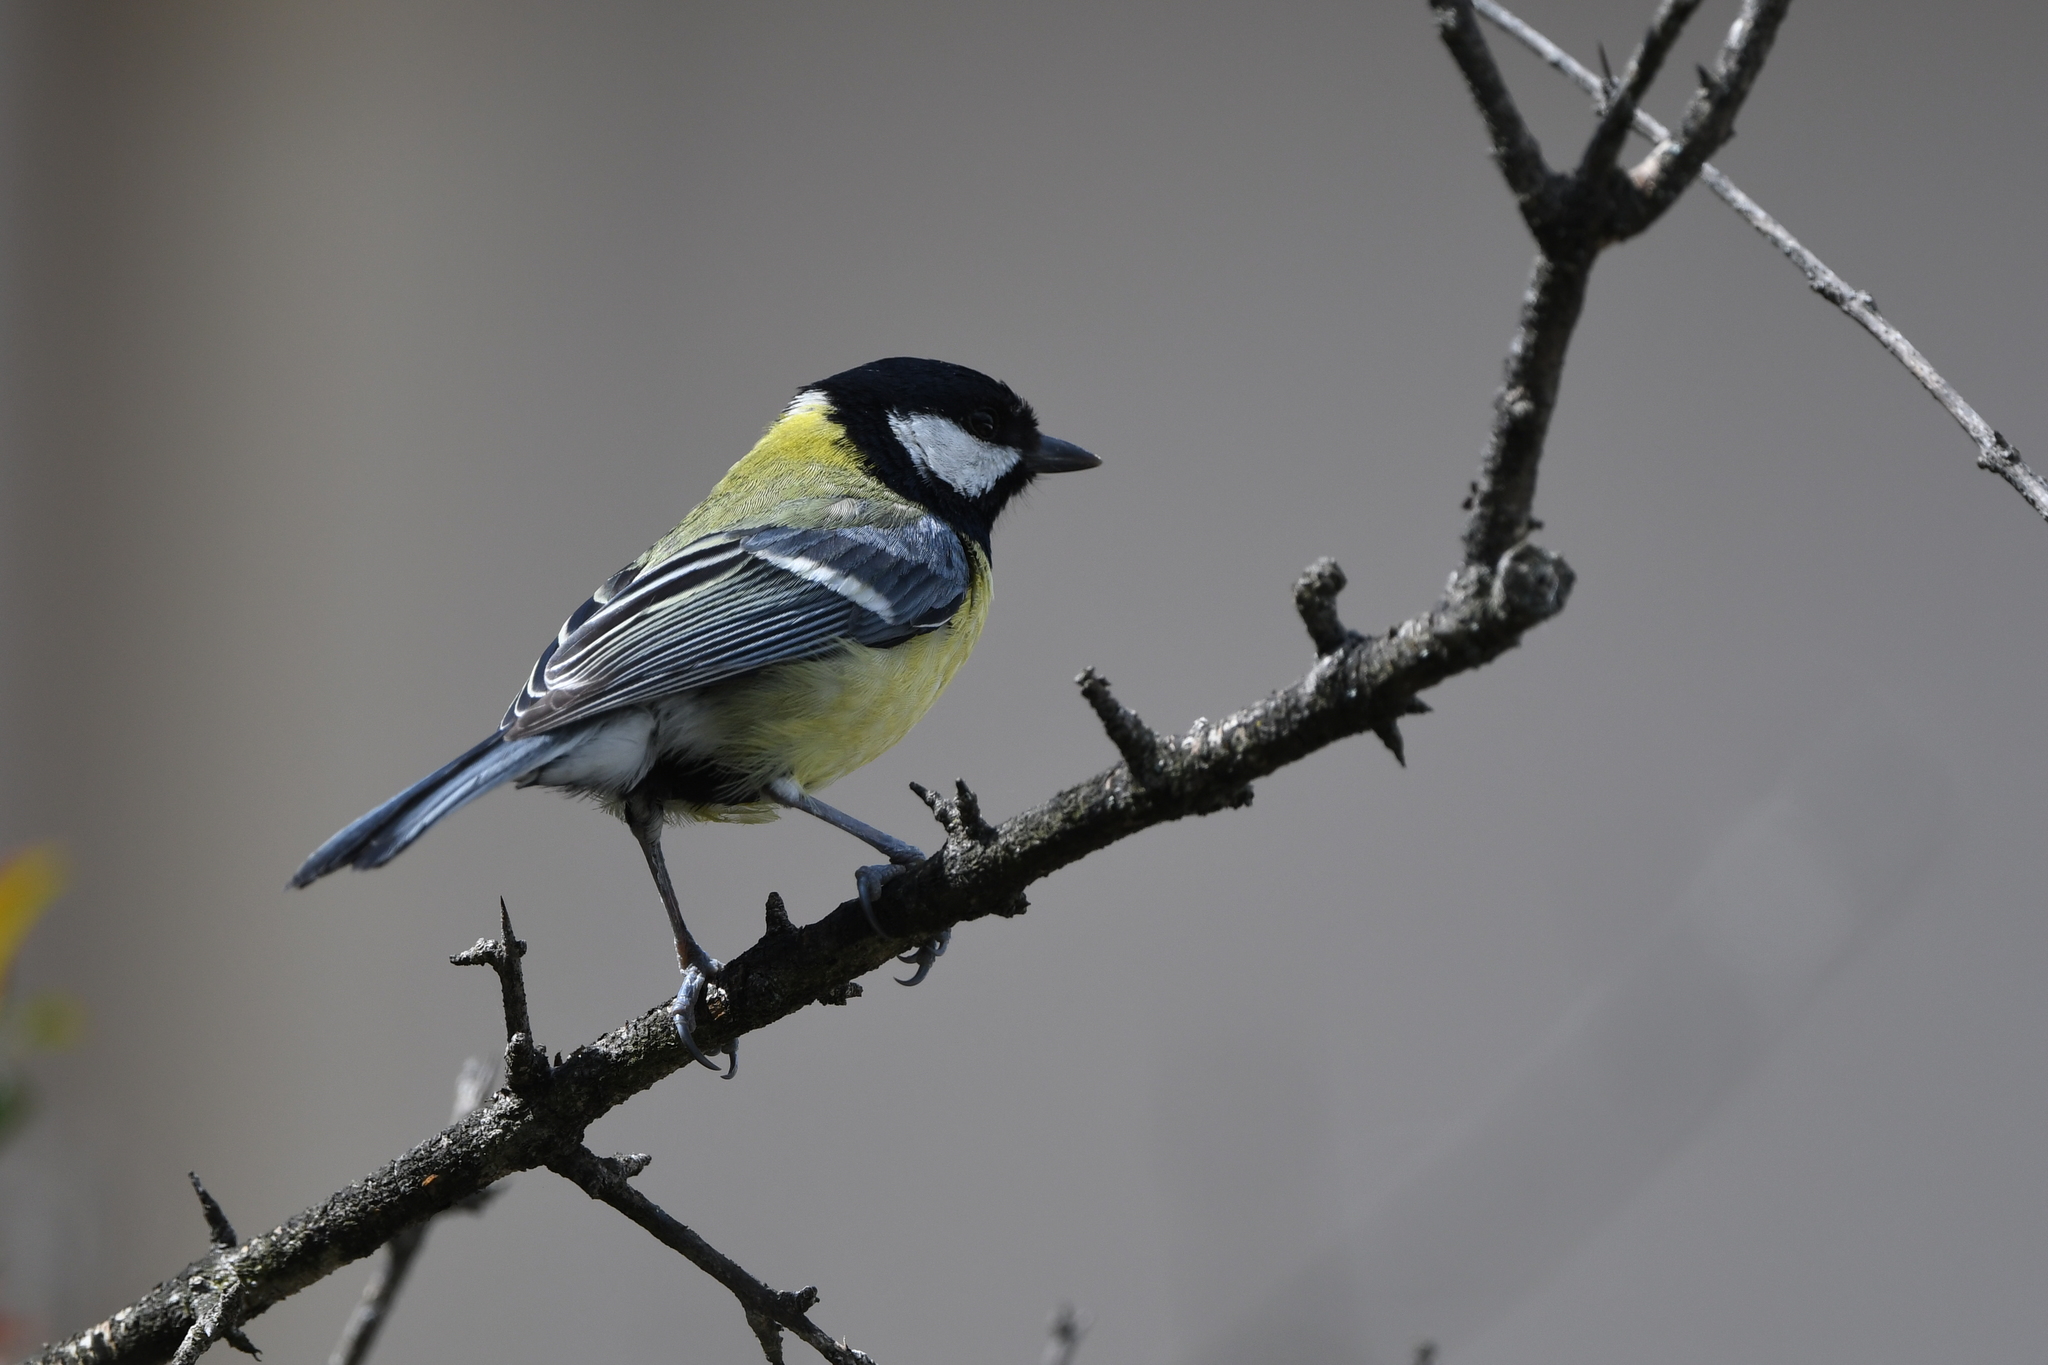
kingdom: Animalia
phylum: Chordata
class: Aves
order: Passeriformes
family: Paridae
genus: Parus
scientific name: Parus major
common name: Great tit
